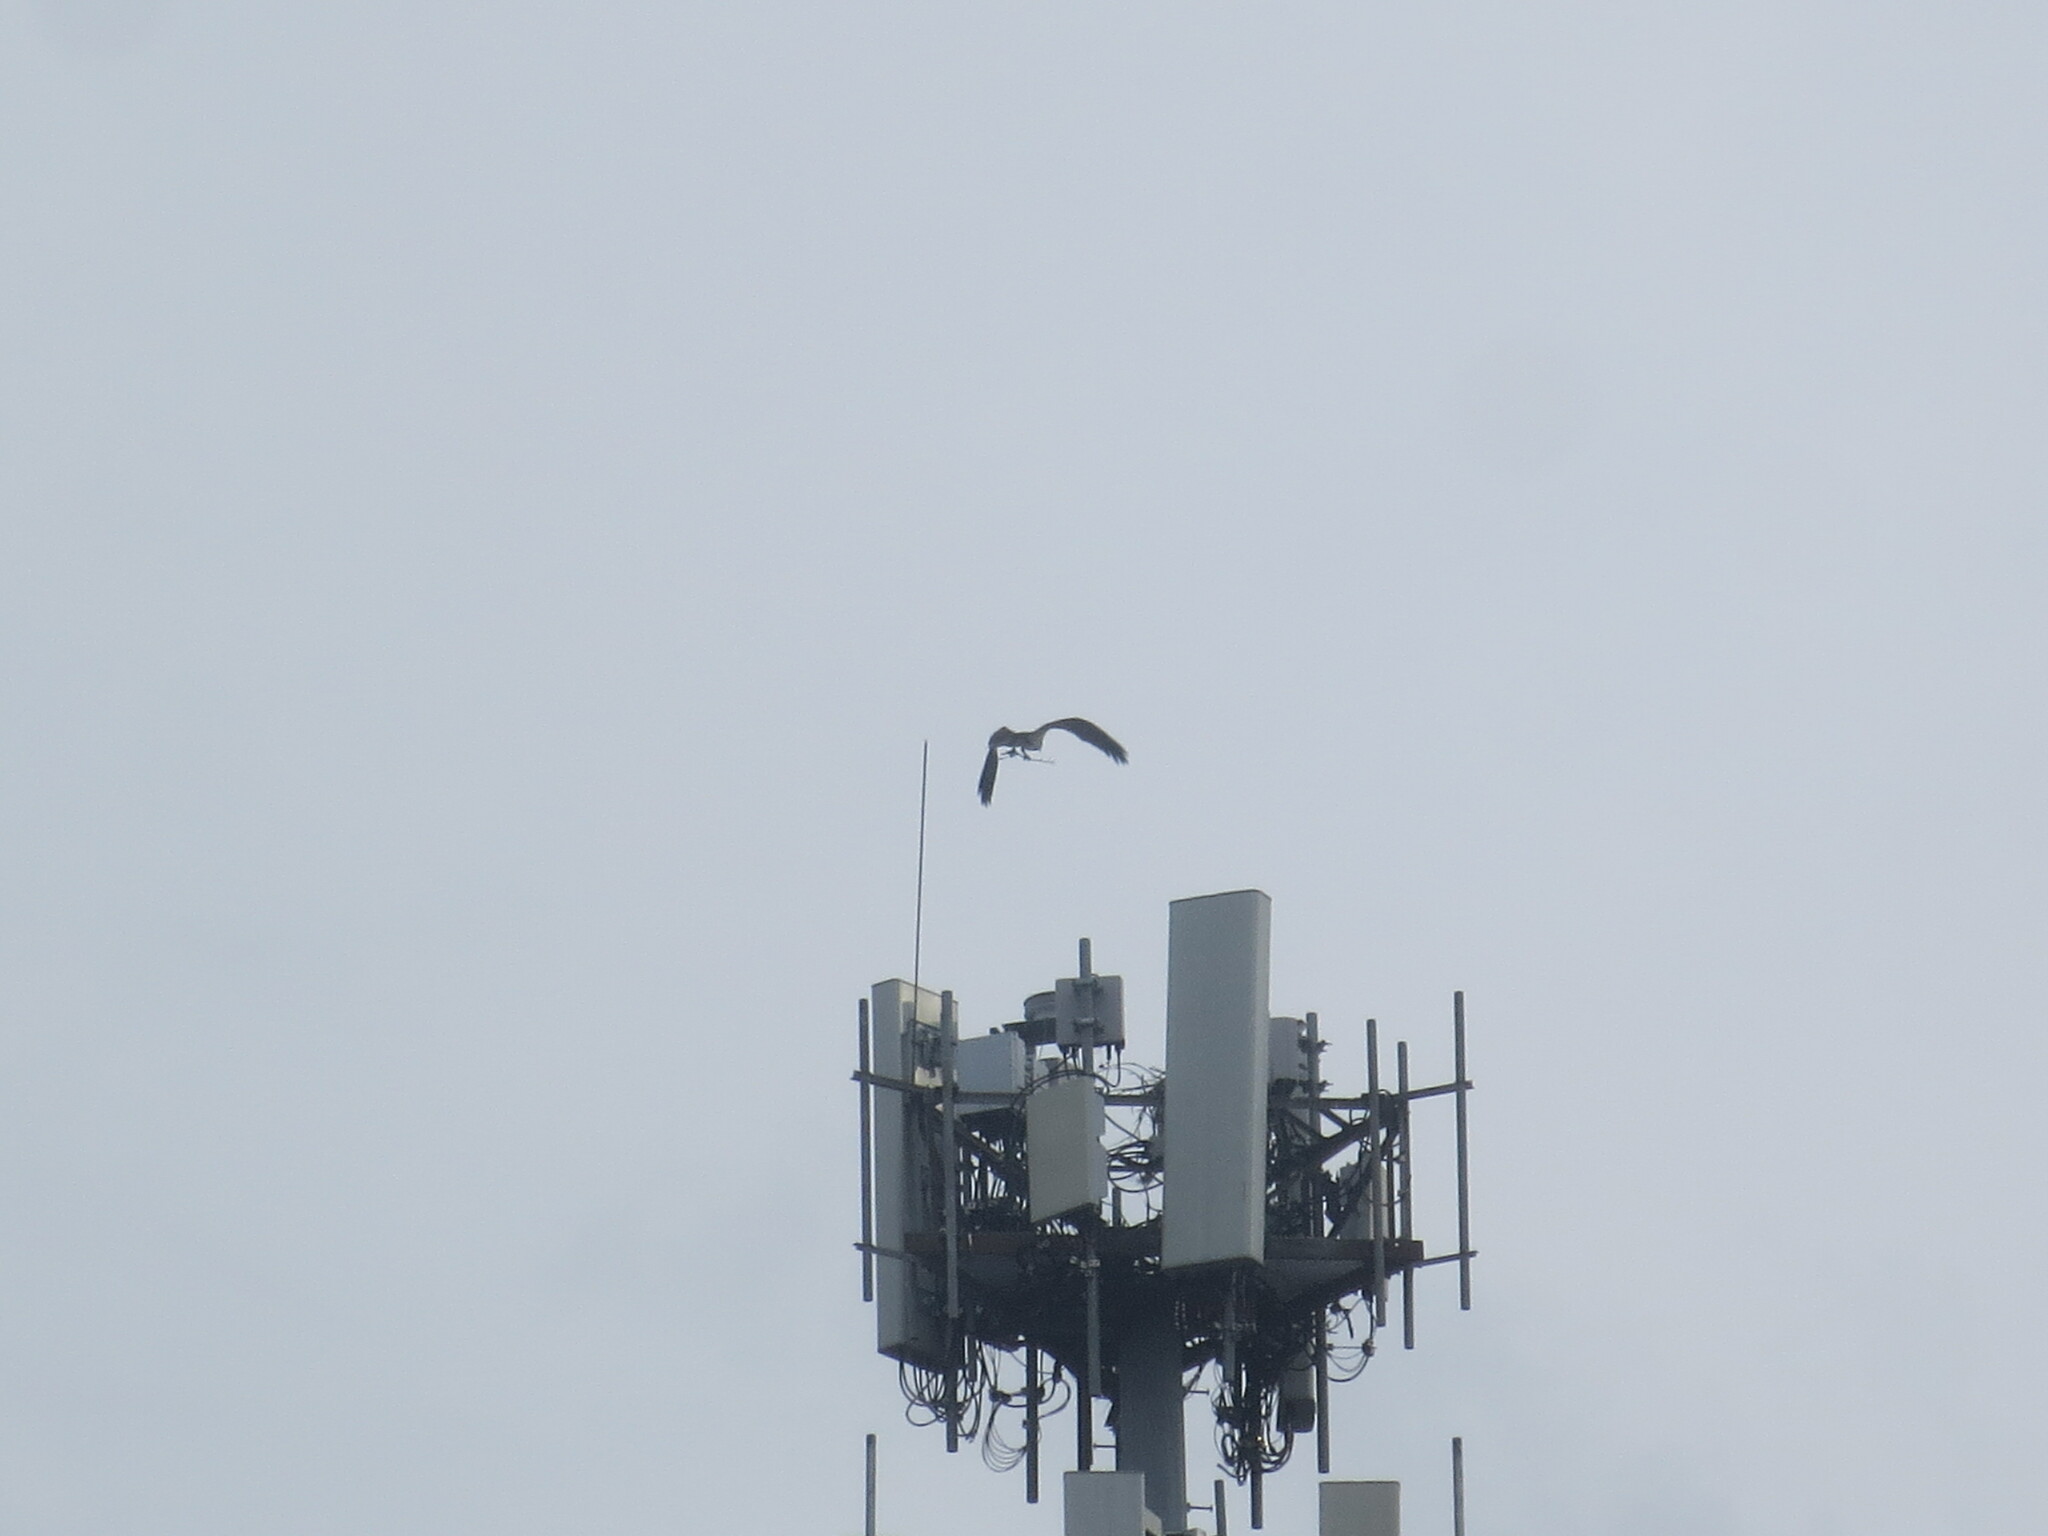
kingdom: Animalia
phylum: Chordata
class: Aves
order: Accipitriformes
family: Pandionidae
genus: Pandion
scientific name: Pandion haliaetus
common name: Osprey
